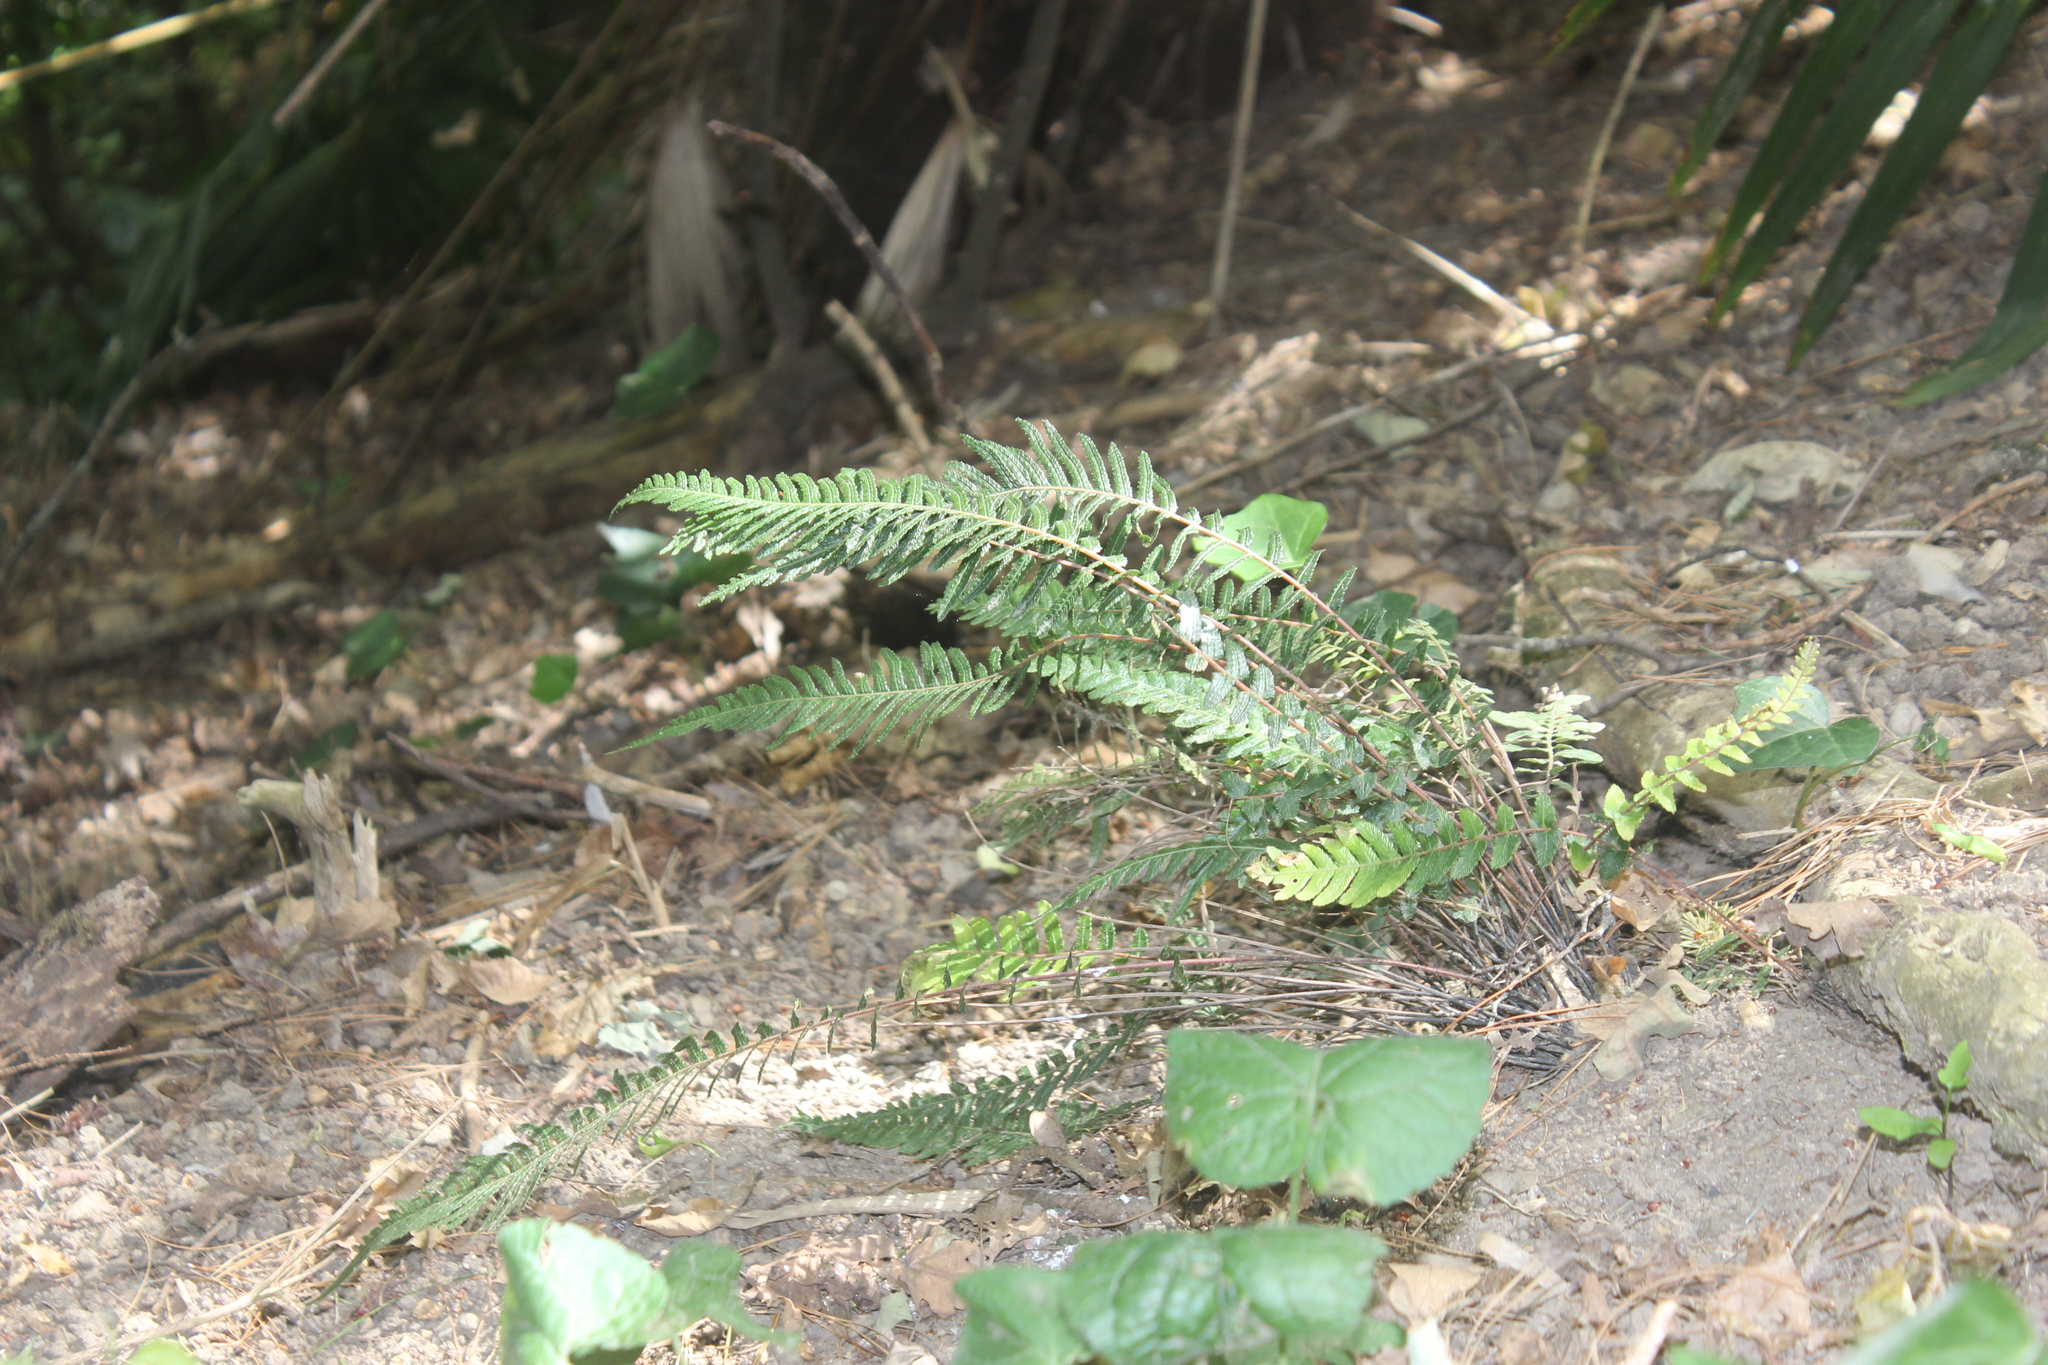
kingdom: Plantae
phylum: Tracheophyta
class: Polypodiopsida
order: Polypodiales
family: Blechnaceae
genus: Doodia
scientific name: Doodia australis
